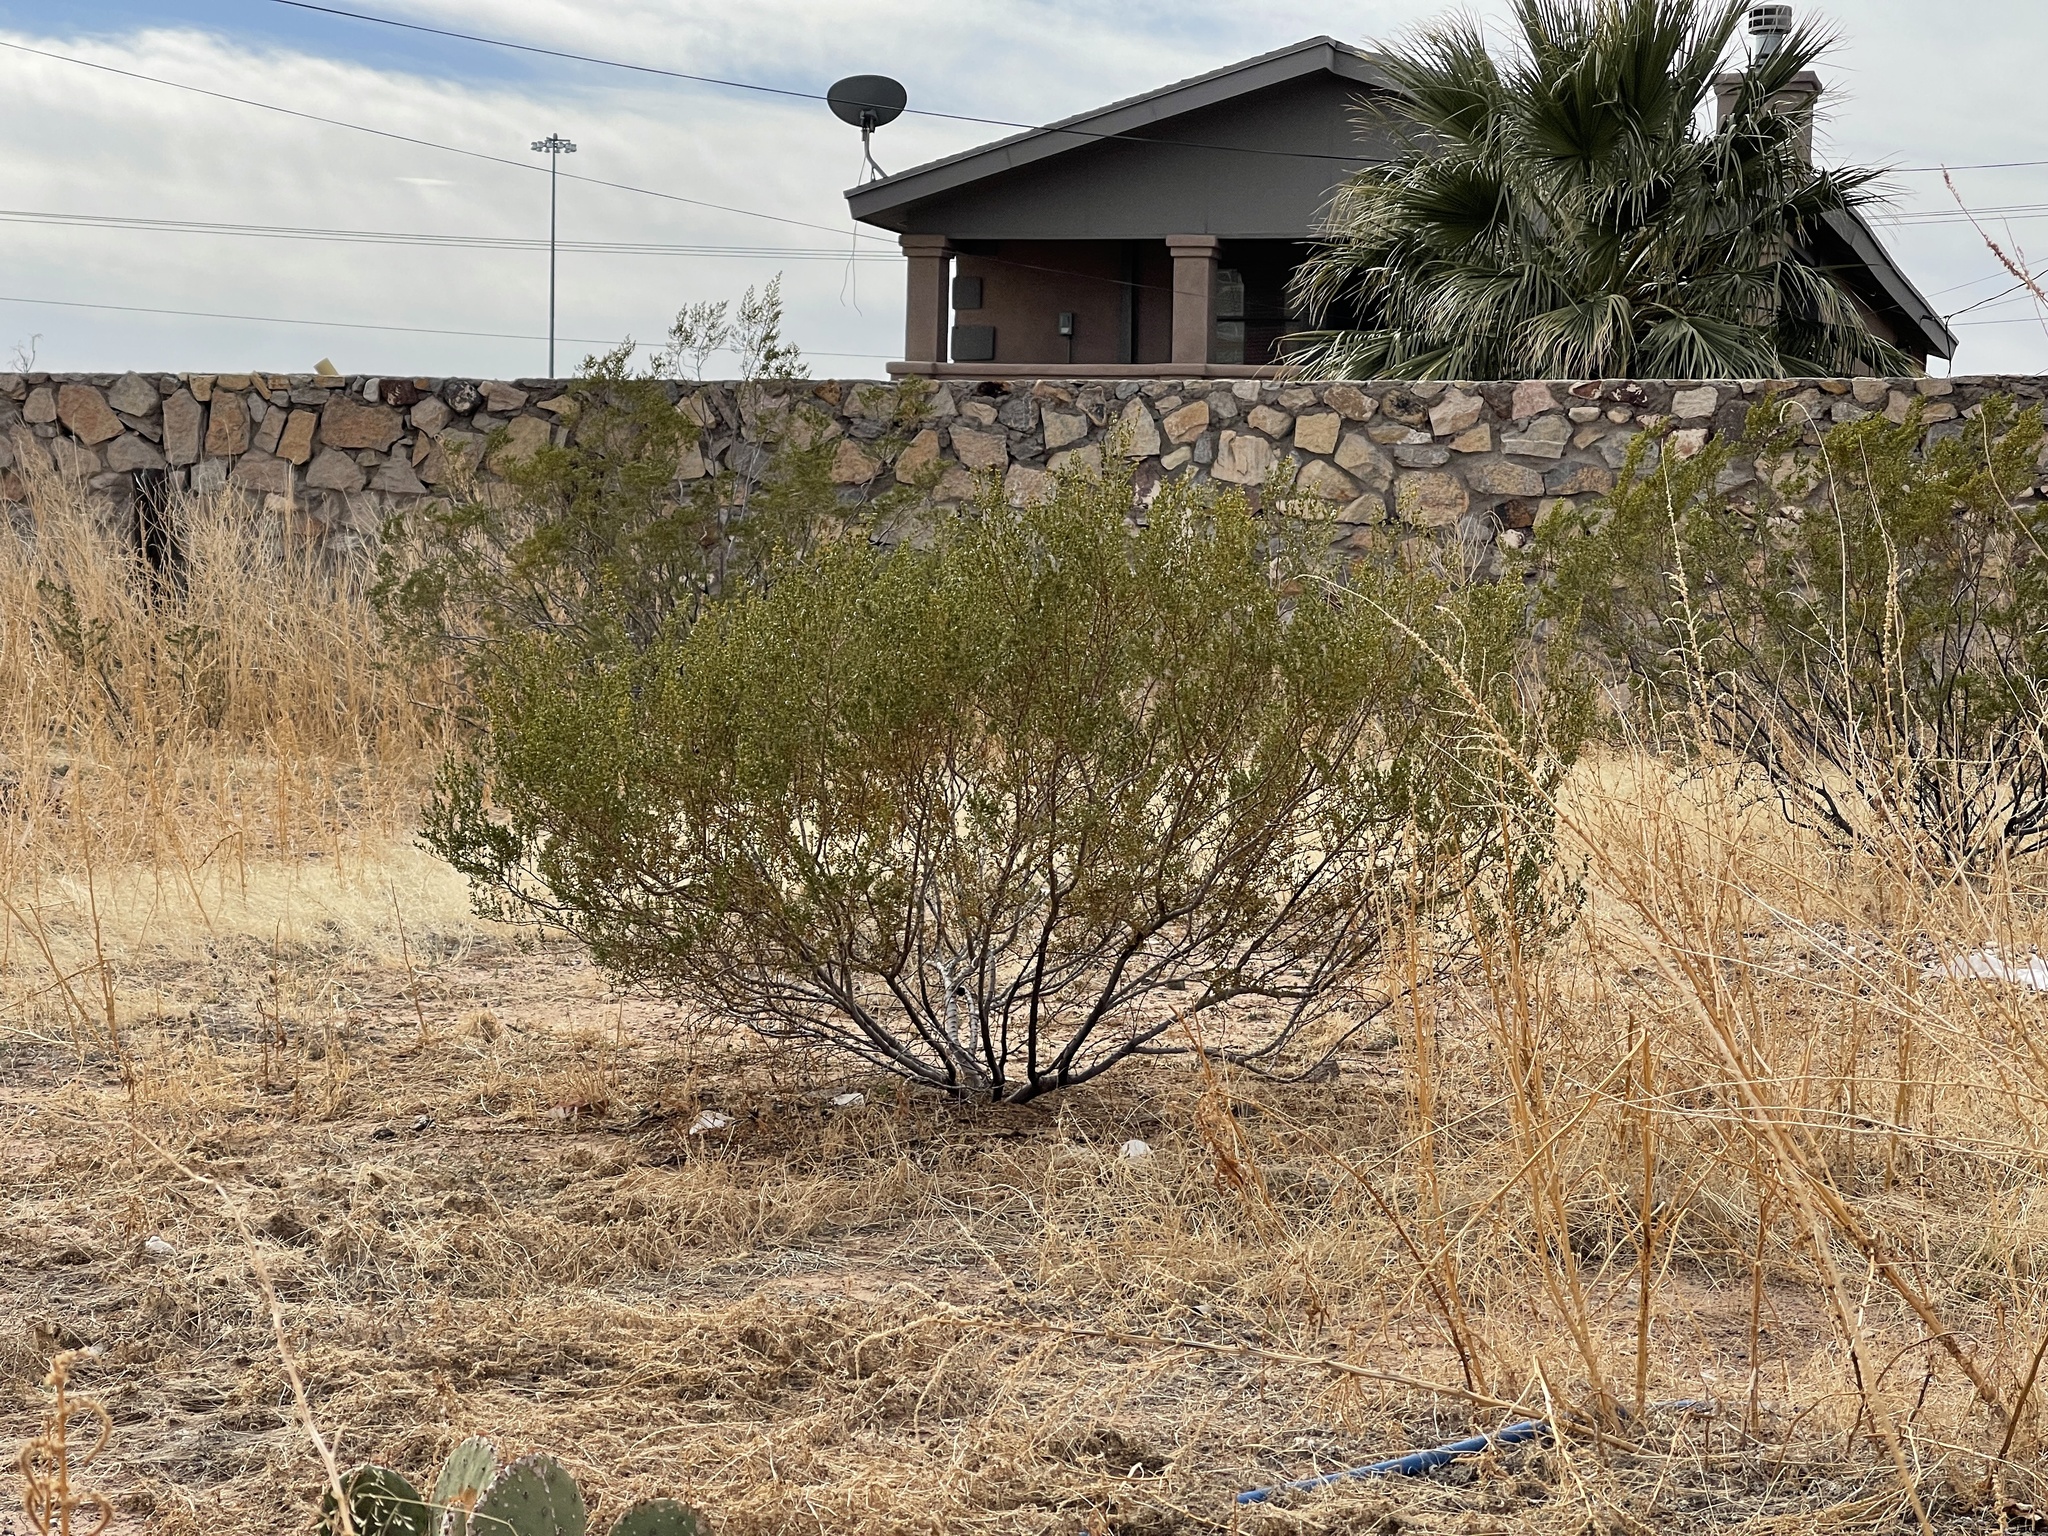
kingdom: Plantae
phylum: Tracheophyta
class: Magnoliopsida
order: Zygophyllales
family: Zygophyllaceae
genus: Larrea
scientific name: Larrea tridentata
